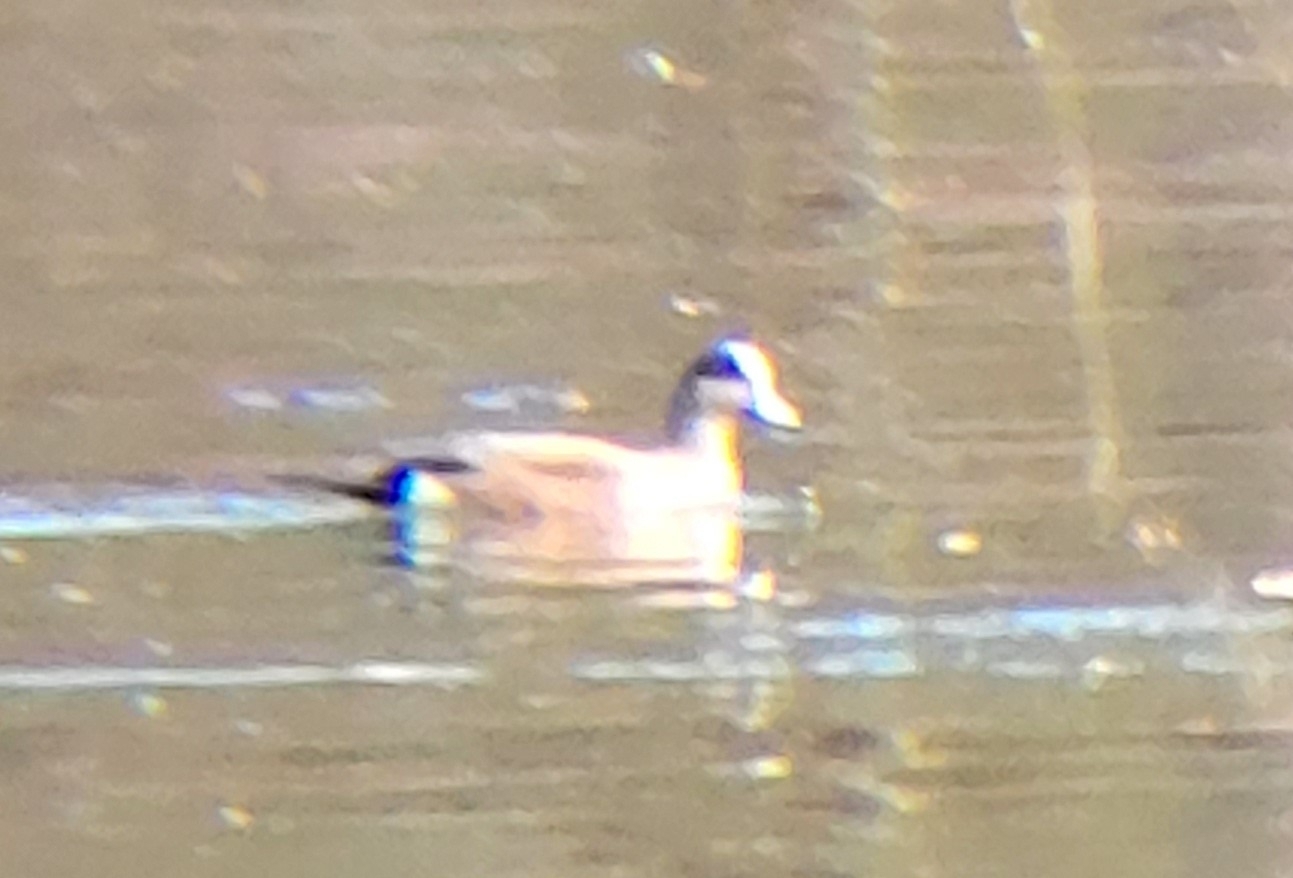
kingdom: Animalia
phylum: Chordata
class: Aves
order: Anseriformes
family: Anatidae
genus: Mareca
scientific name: Mareca americana
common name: American wigeon
